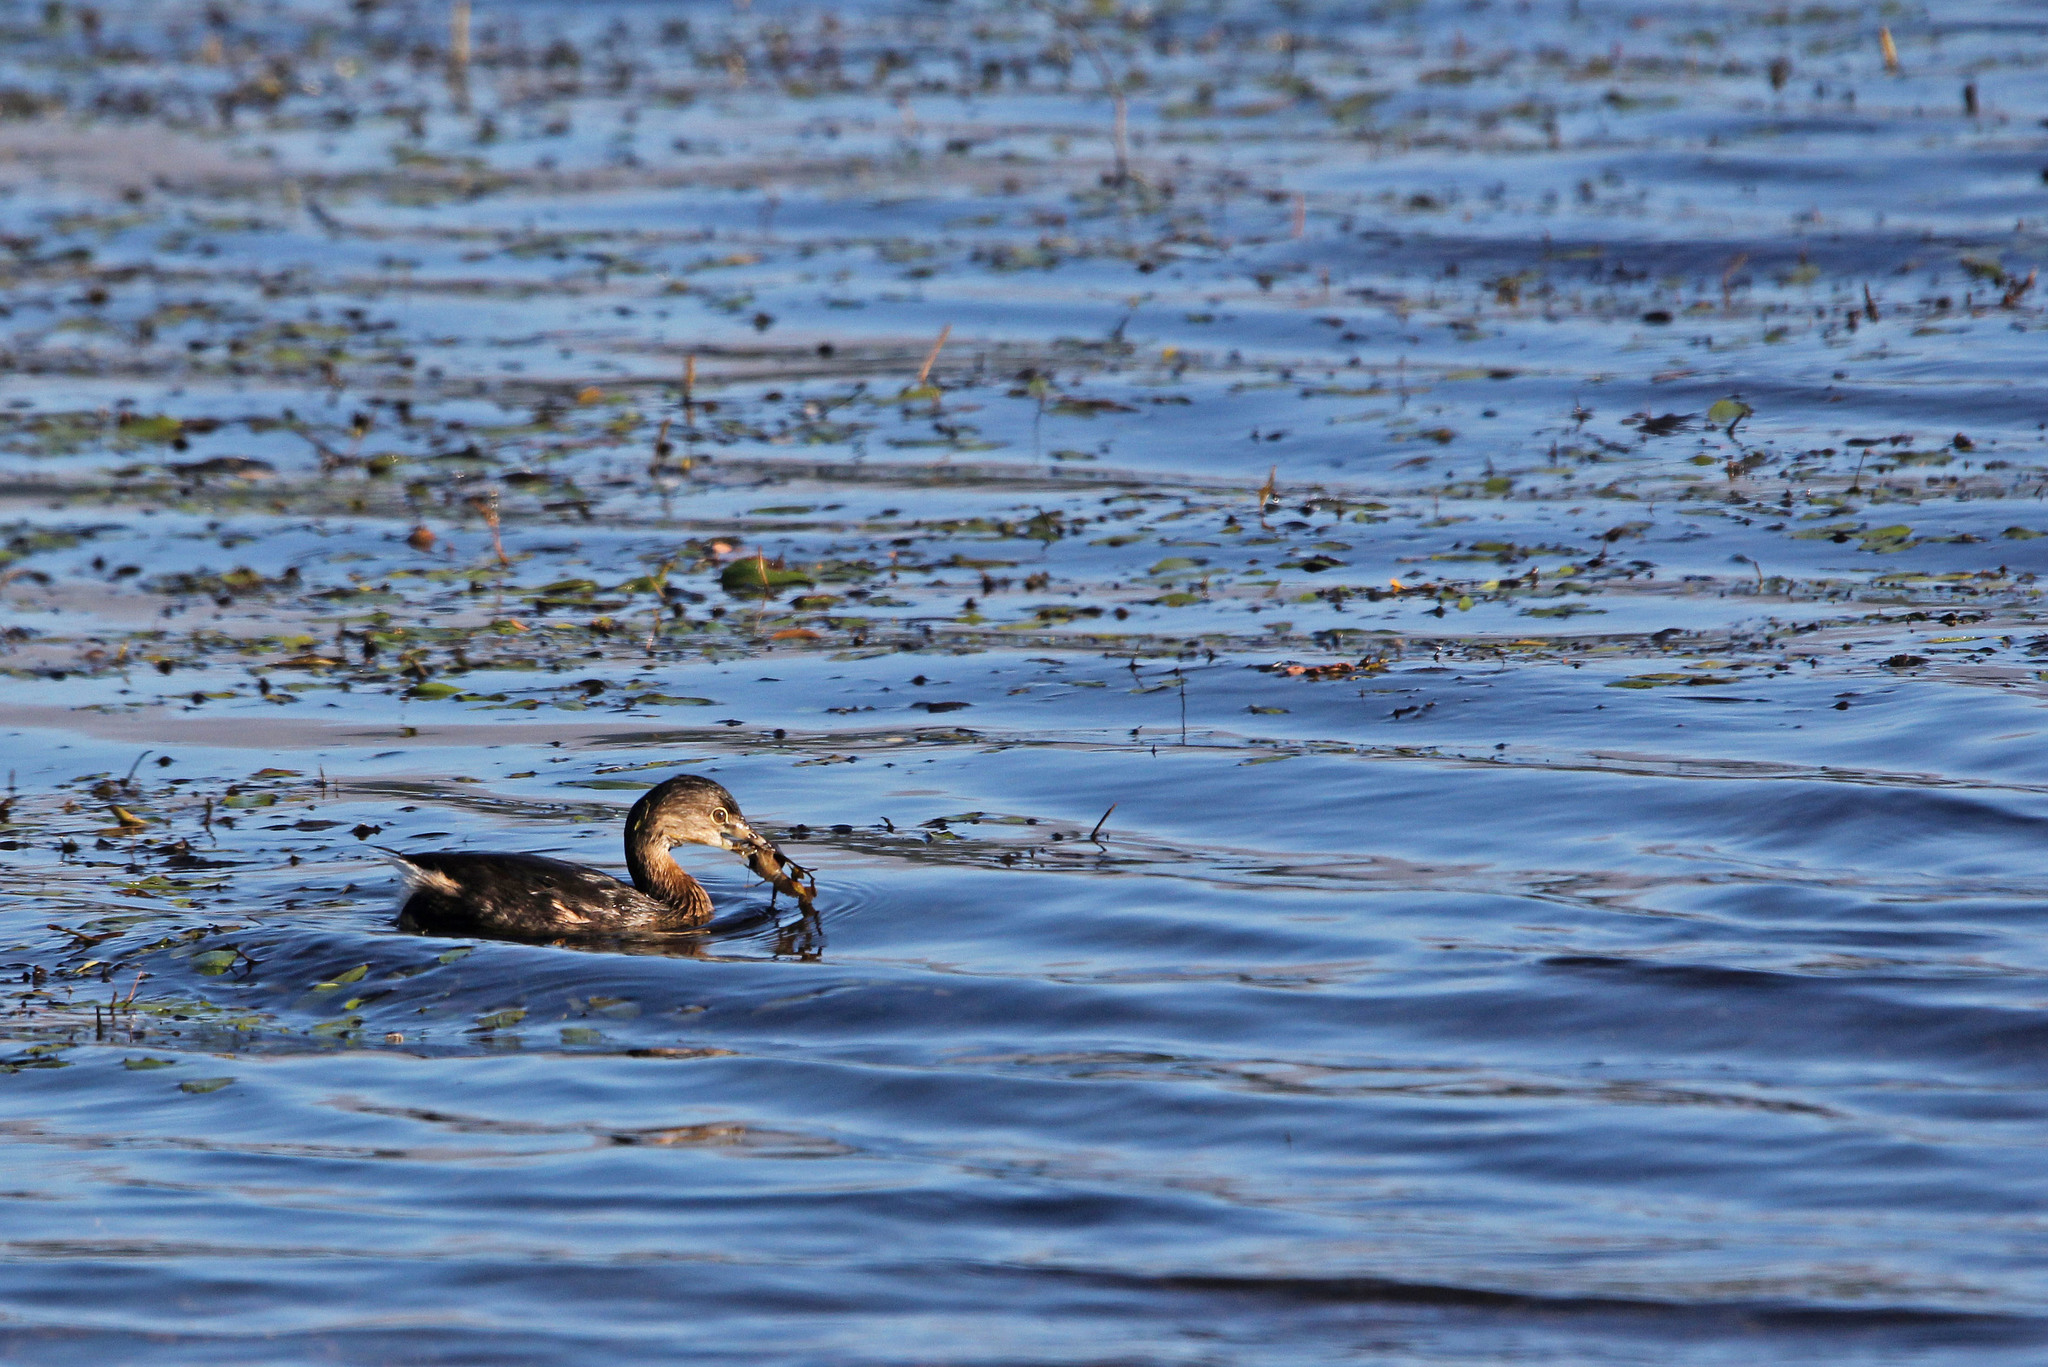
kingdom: Animalia
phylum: Chordata
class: Aves
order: Podicipediformes
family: Podicipedidae
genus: Podilymbus
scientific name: Podilymbus podiceps
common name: Pied-billed grebe
